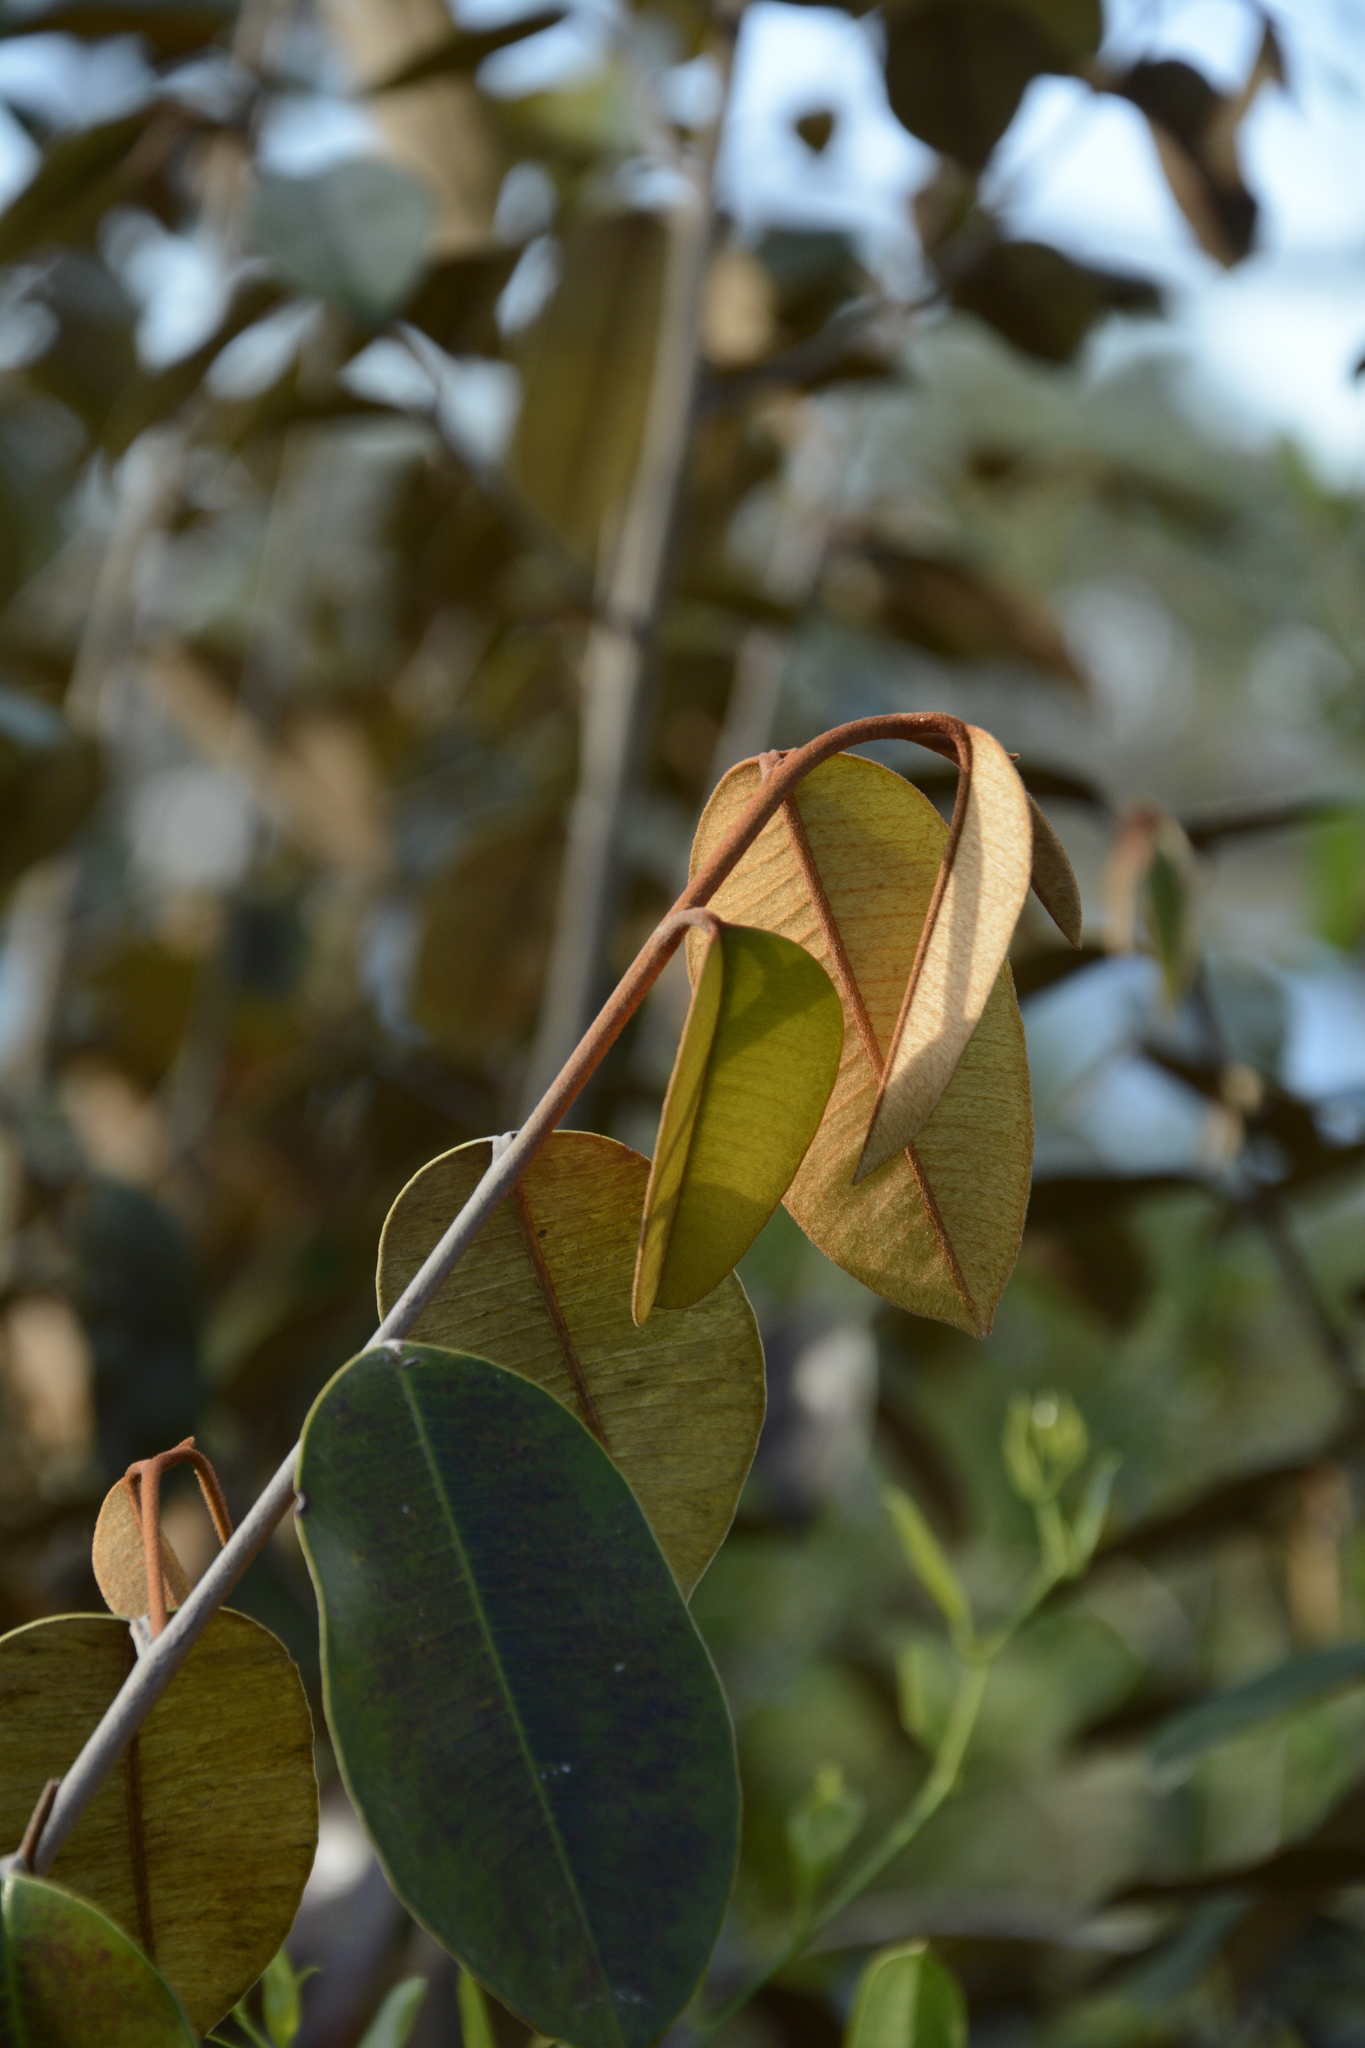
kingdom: Plantae
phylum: Tracheophyta
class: Magnoliopsida
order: Ericales
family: Sapotaceae
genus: Chrysophyllum
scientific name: Chrysophyllum oliviforme
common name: Satinleaf
